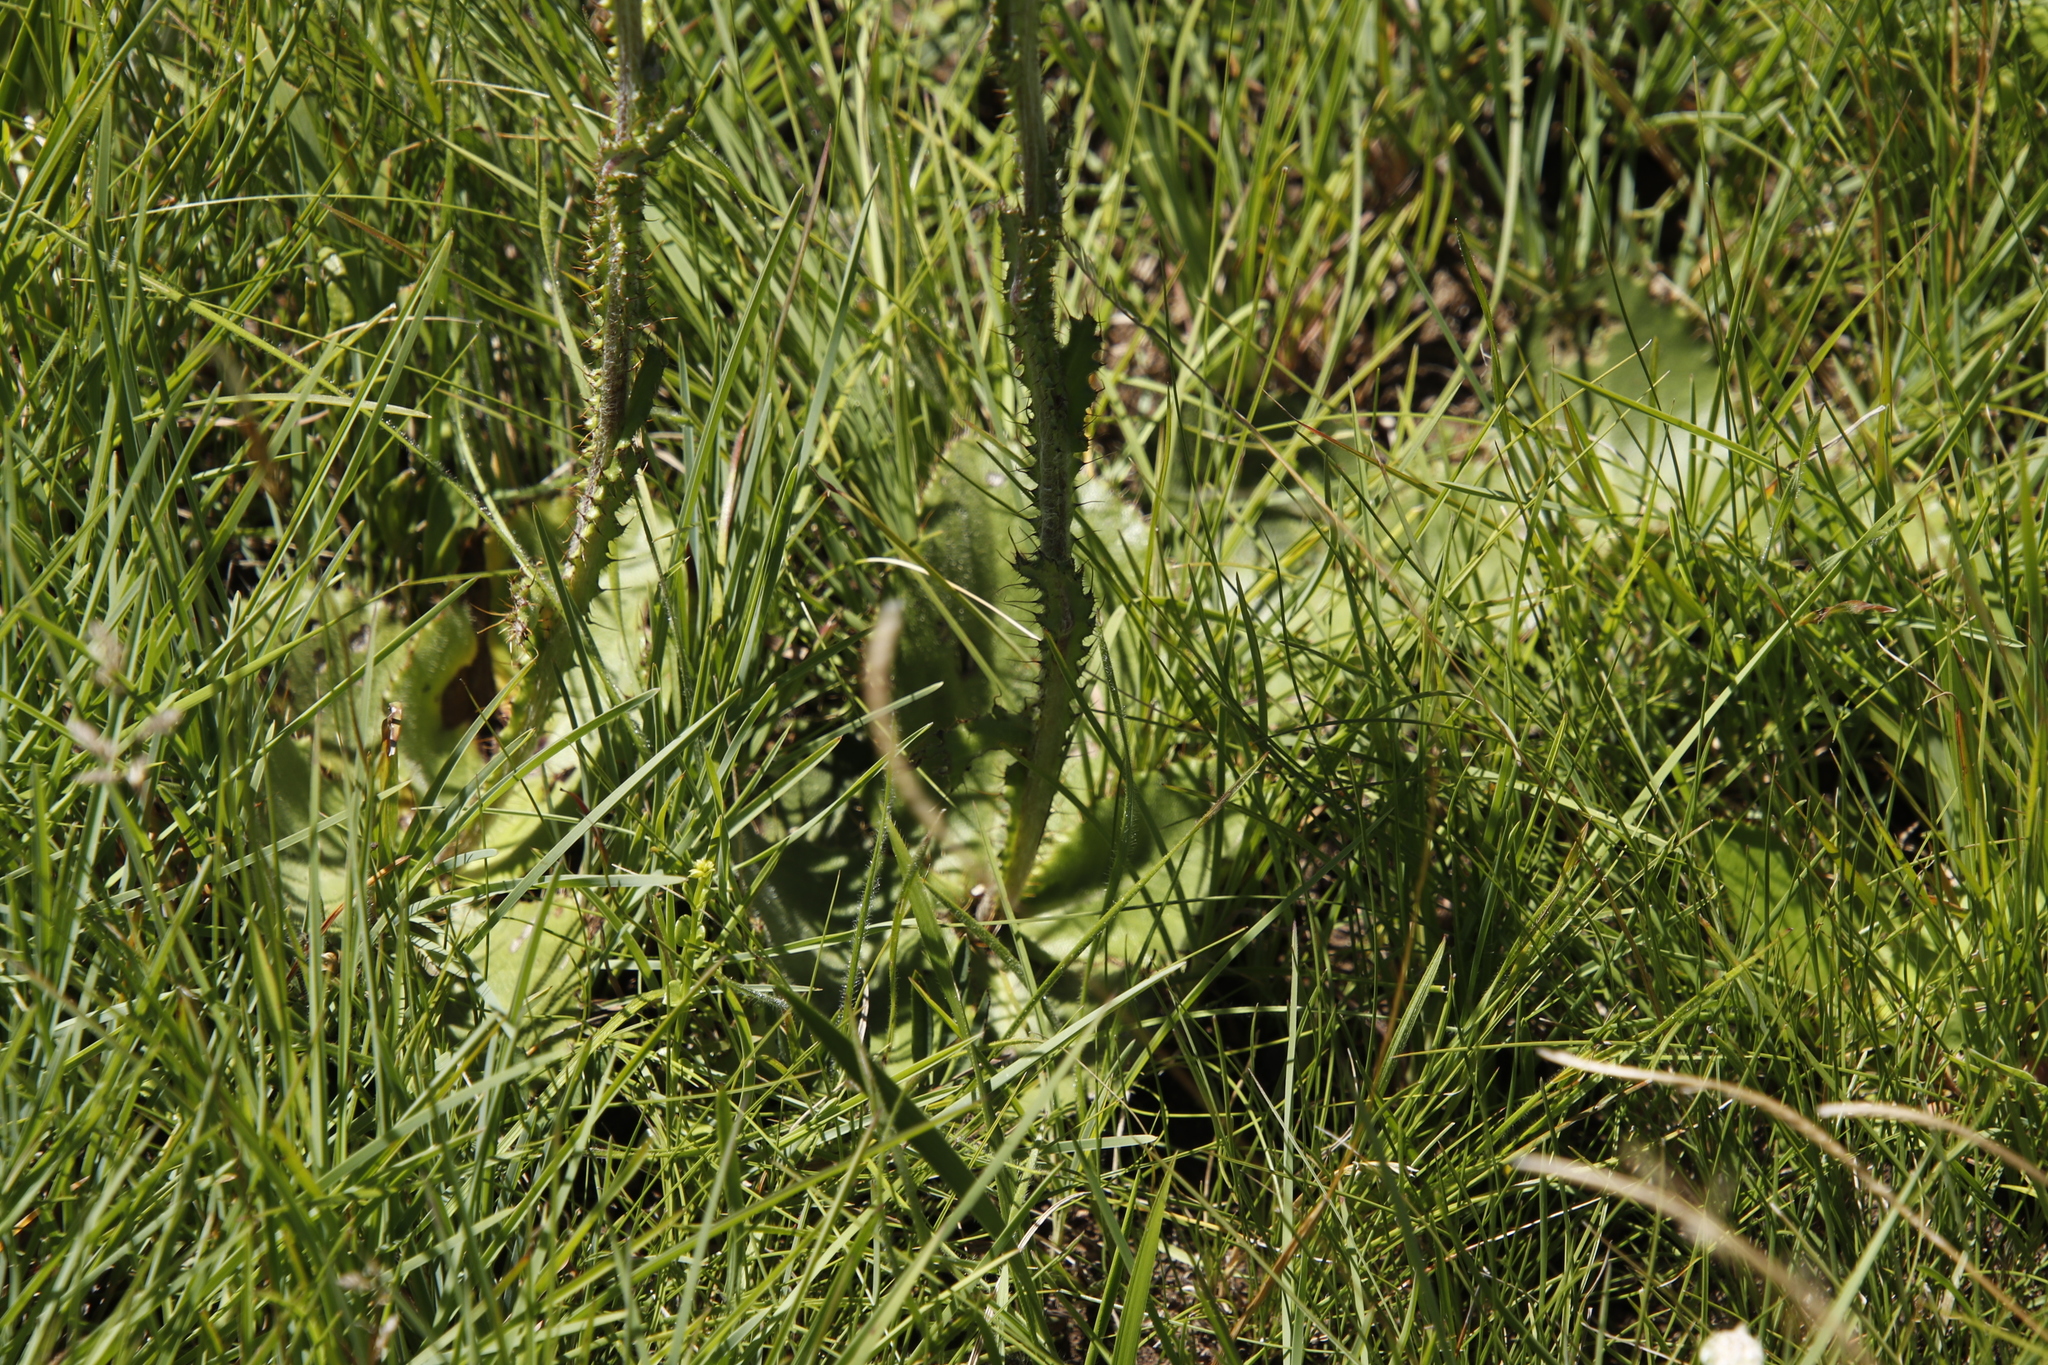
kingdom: Plantae
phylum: Tracheophyta
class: Magnoliopsida
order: Asterales
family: Asteraceae
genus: Berkheya
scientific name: Berkheya rhapontica
